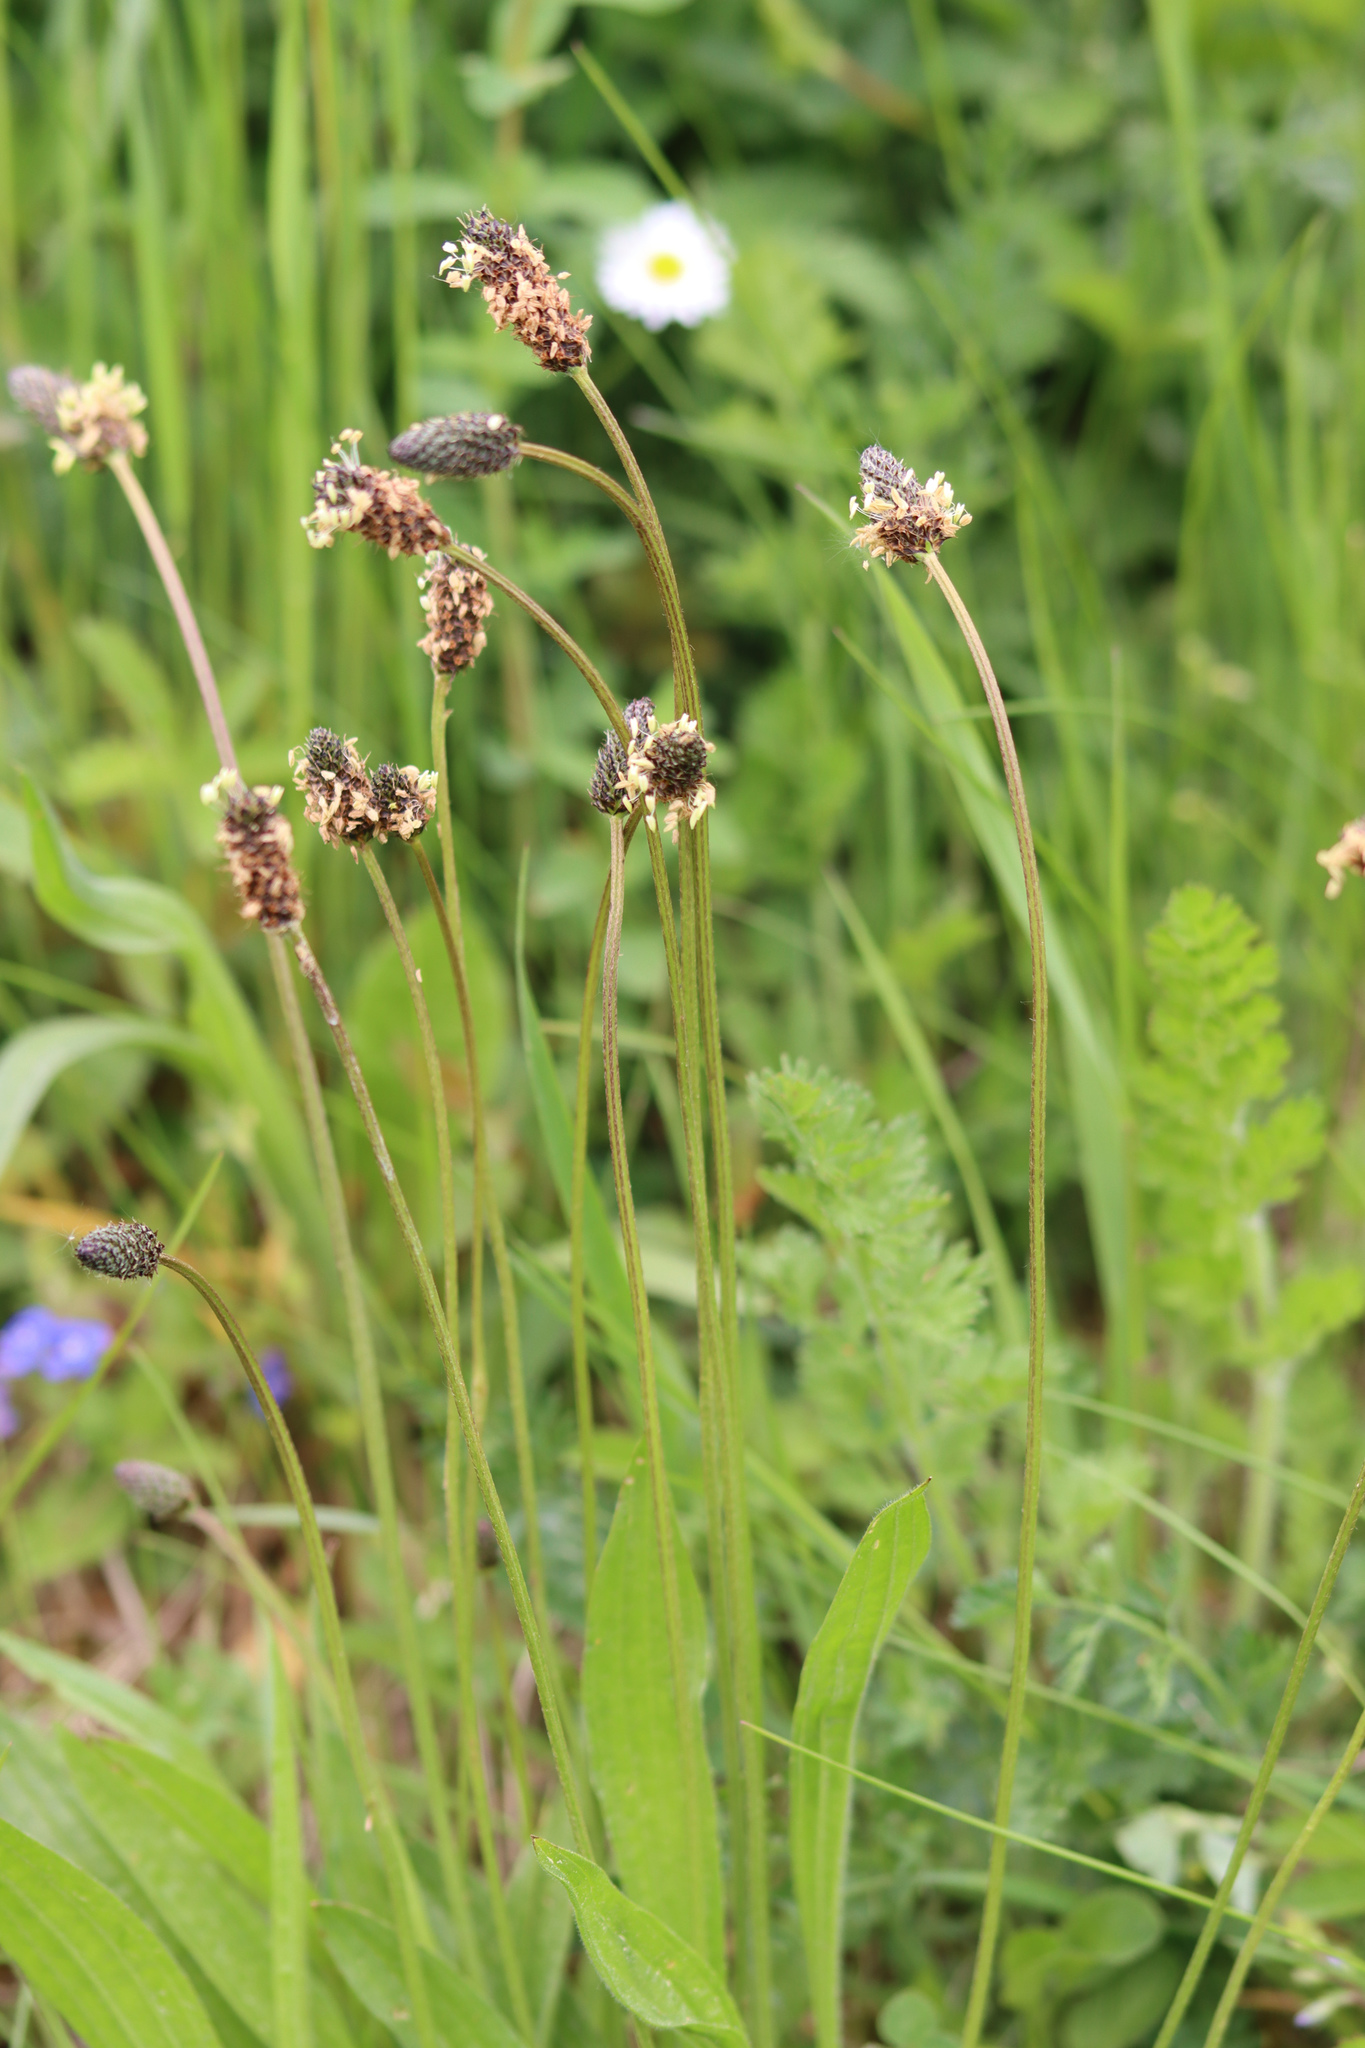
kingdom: Plantae
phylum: Tracheophyta
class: Magnoliopsida
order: Lamiales
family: Plantaginaceae
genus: Plantago
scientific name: Plantago lanceolata
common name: Ribwort plantain
